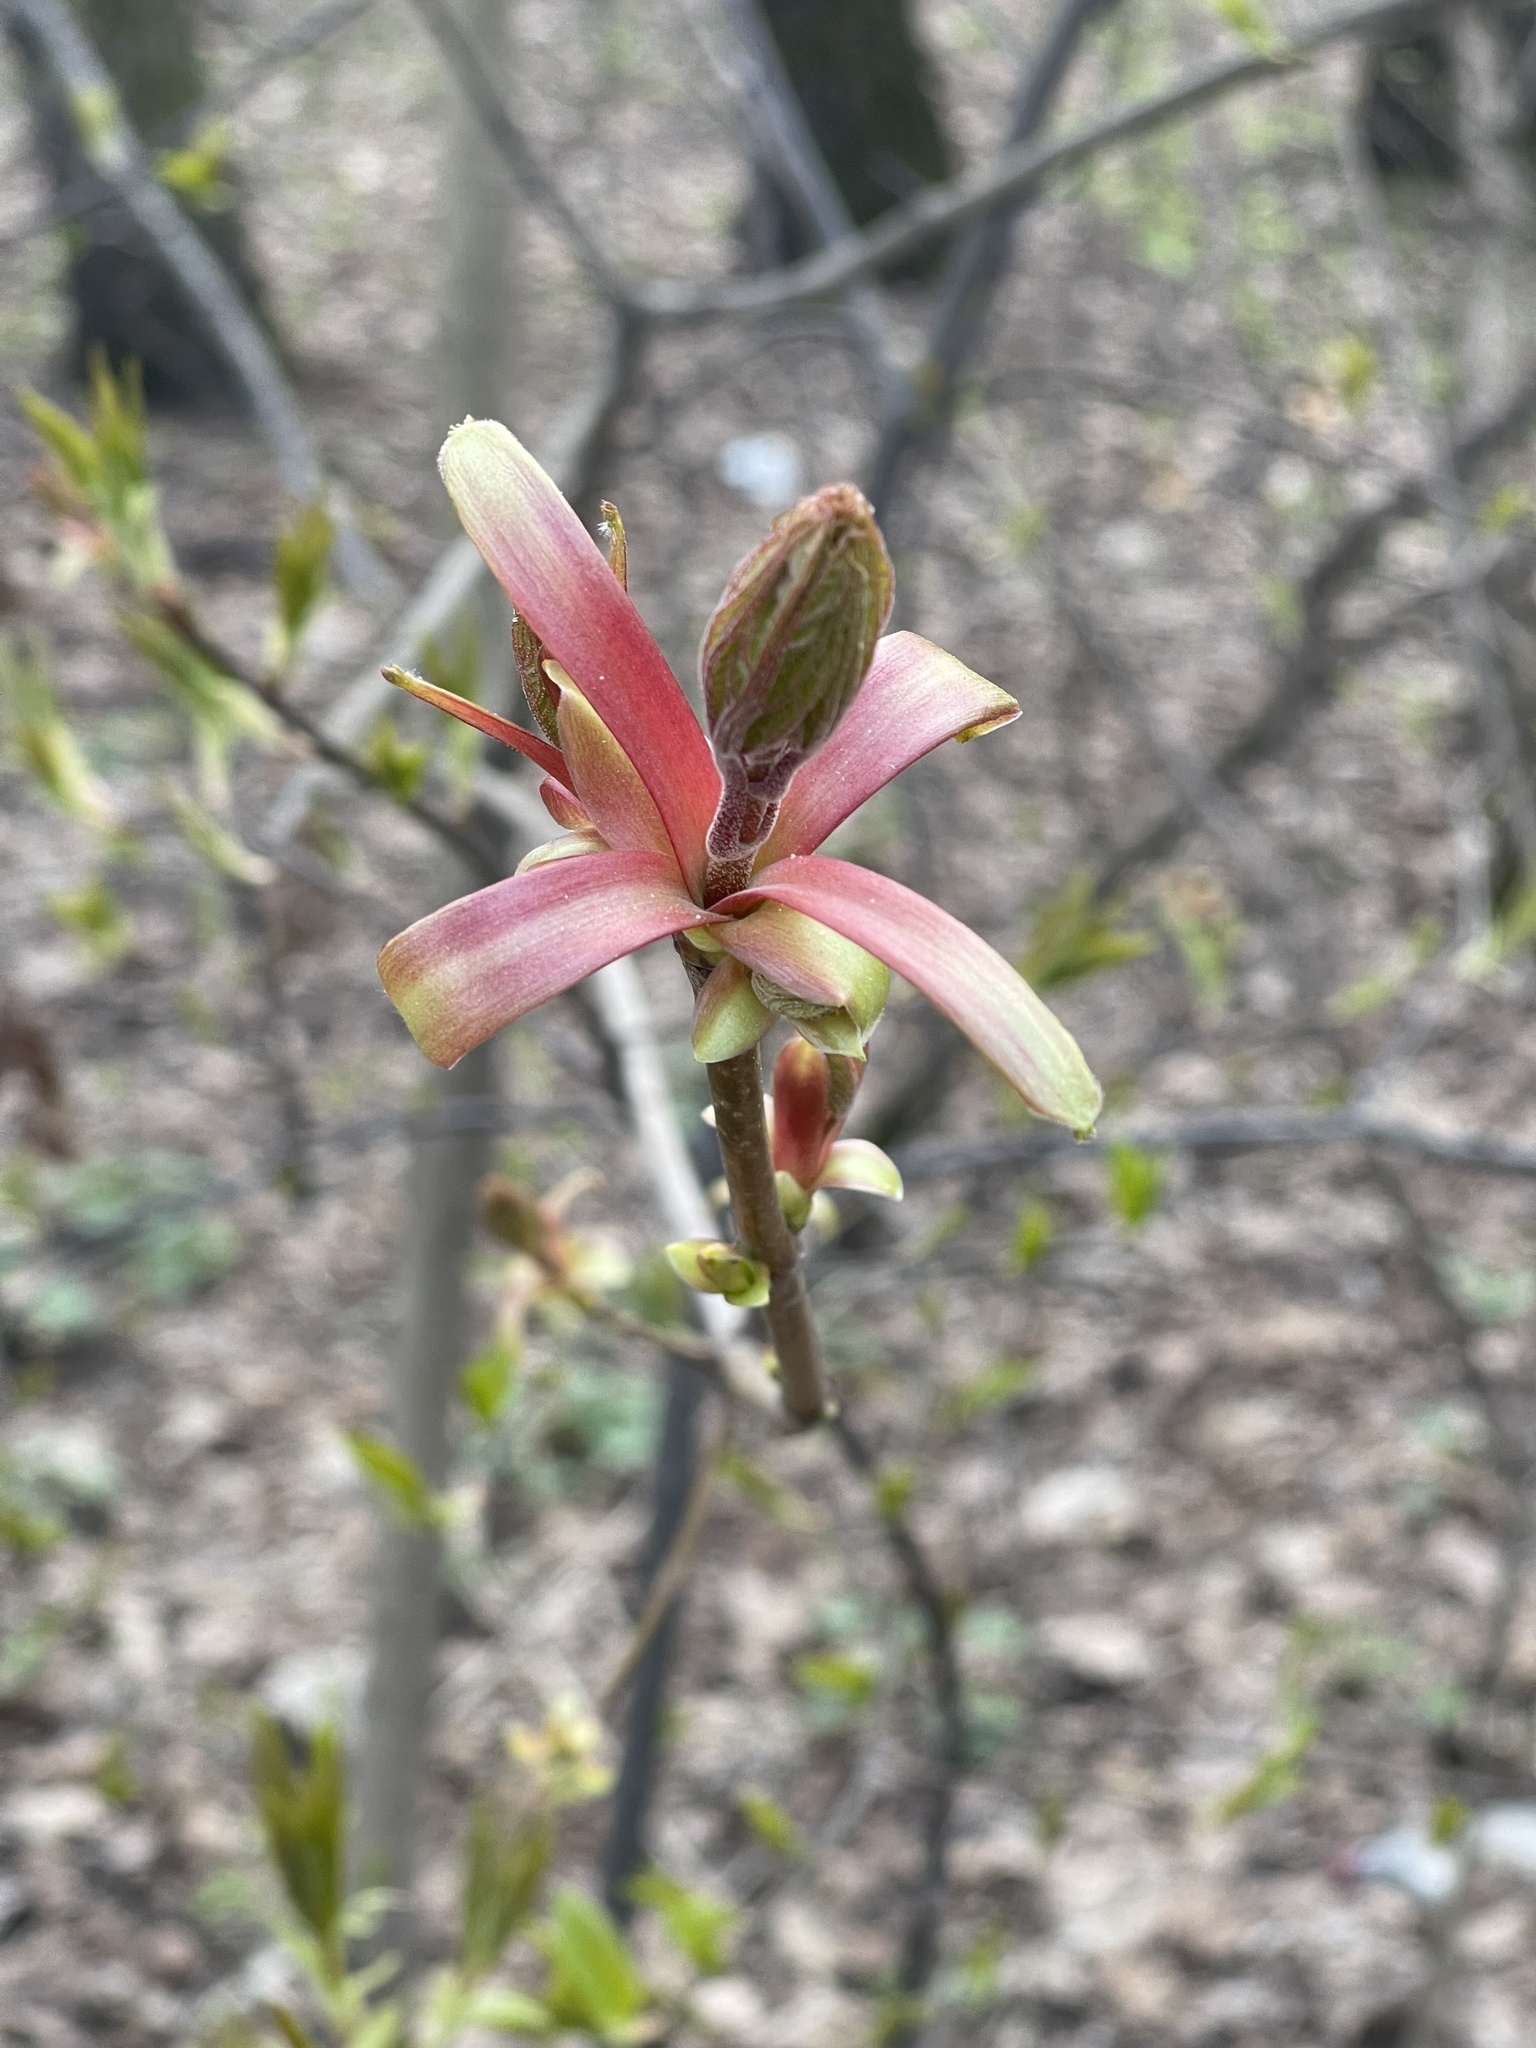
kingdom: Plantae
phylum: Tracheophyta
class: Magnoliopsida
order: Sapindales
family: Sapindaceae
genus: Acer
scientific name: Acer platanoides
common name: Norway maple
